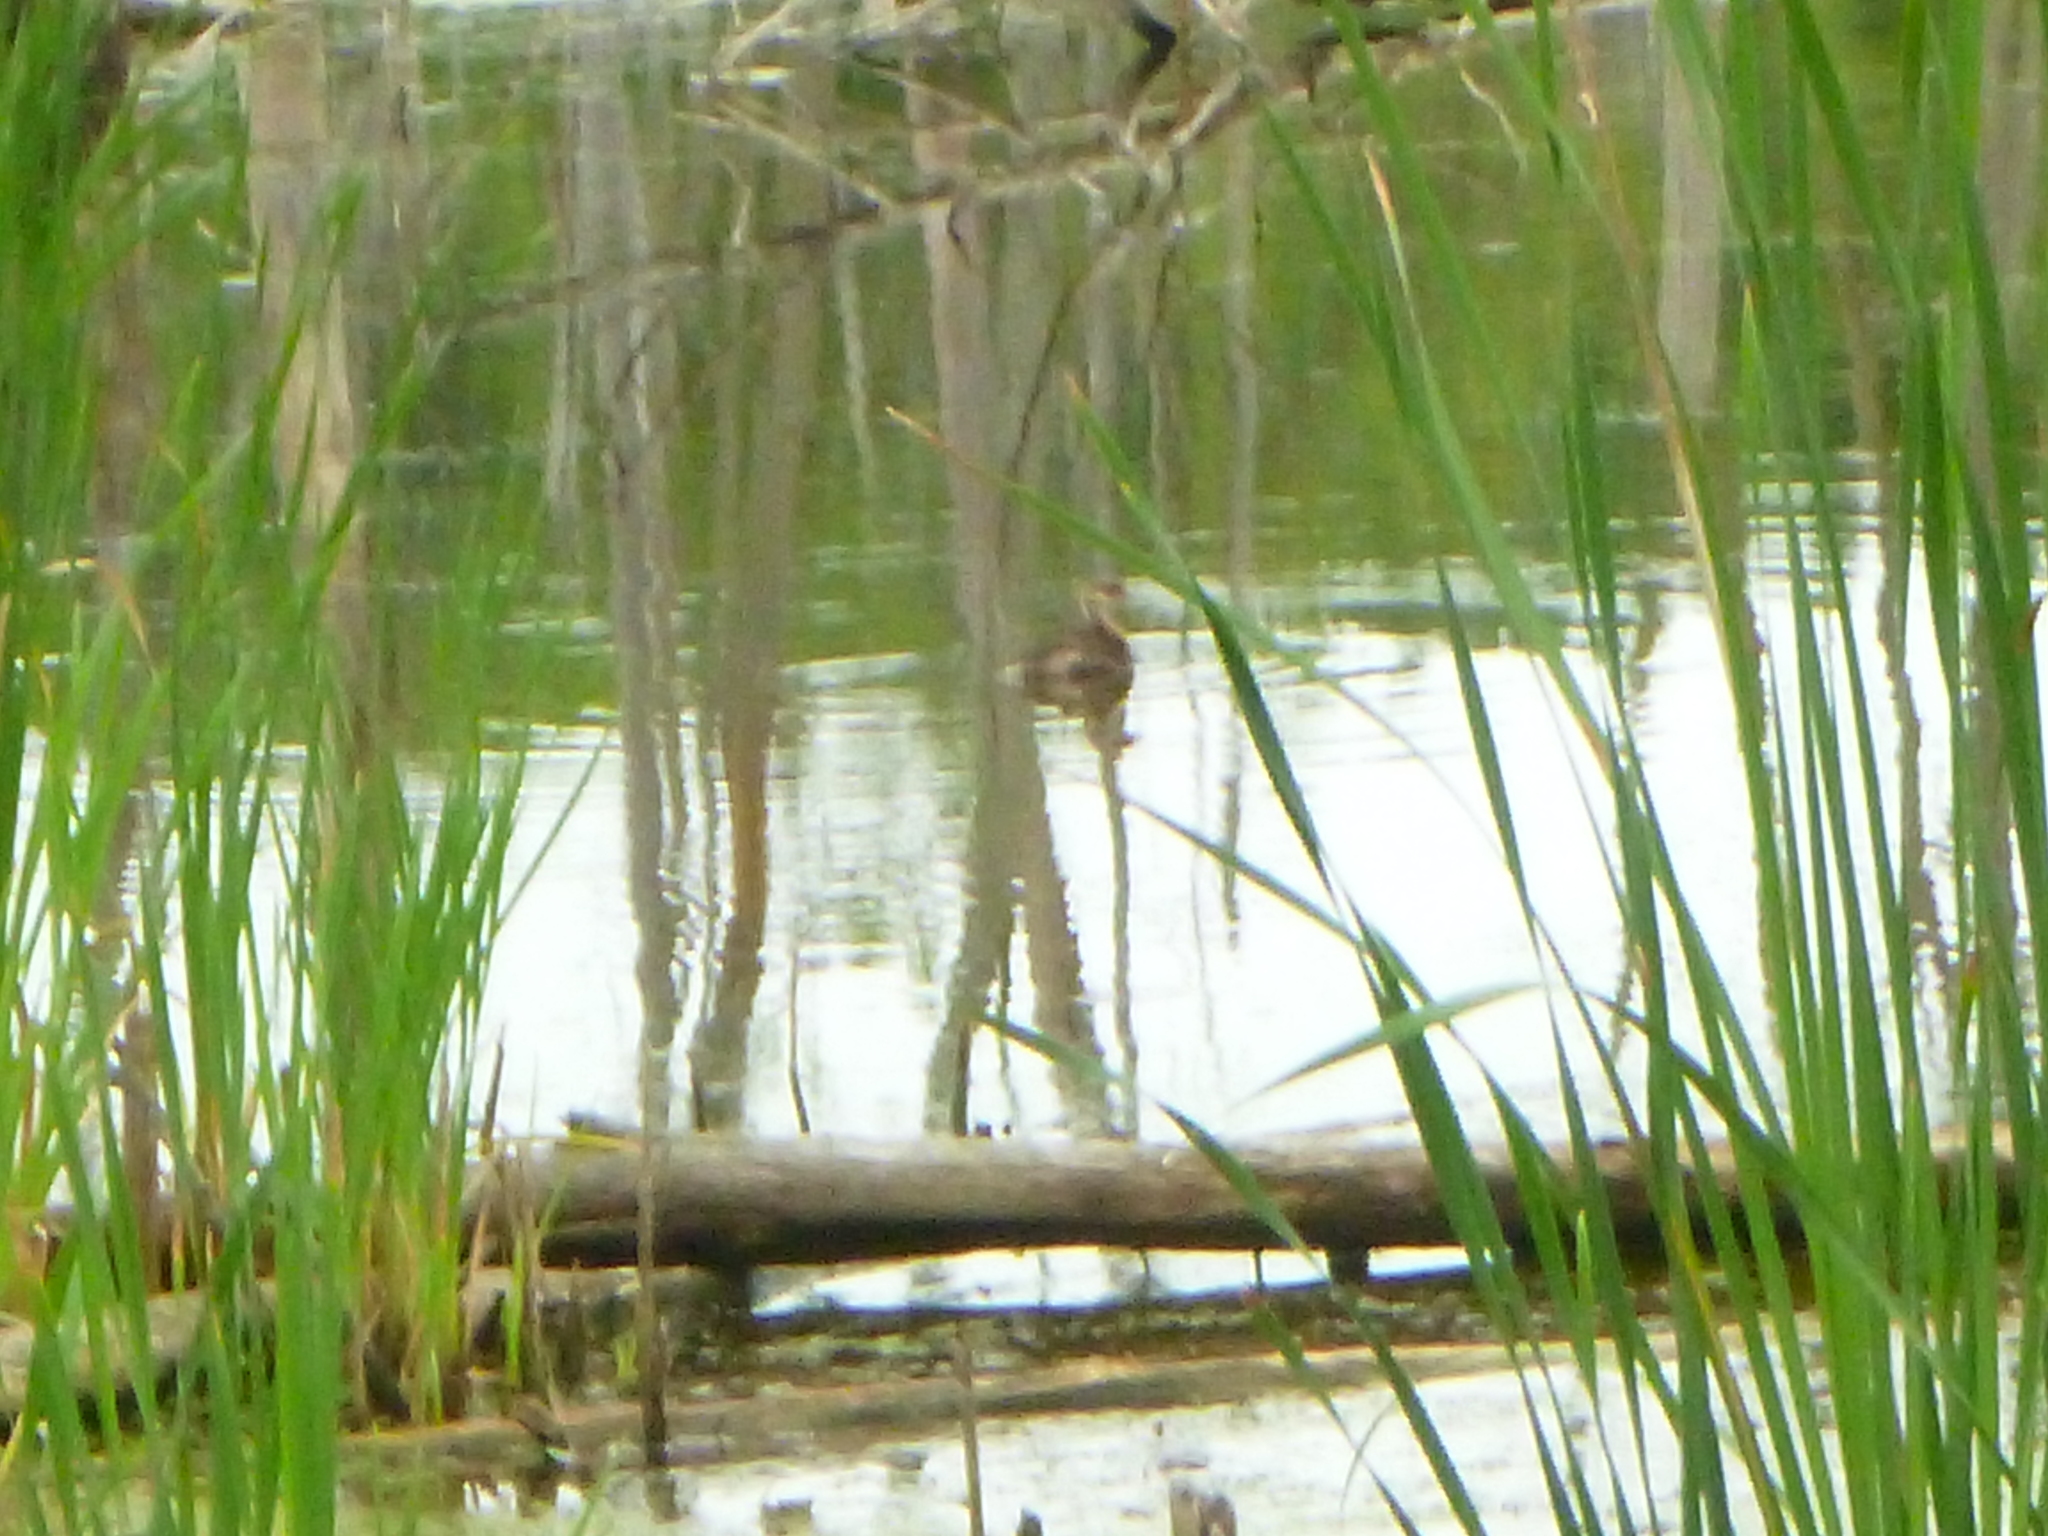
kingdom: Animalia
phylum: Chordata
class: Aves
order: Podicipediformes
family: Podicipedidae
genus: Podilymbus
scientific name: Podilymbus podiceps
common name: Pied-billed grebe
